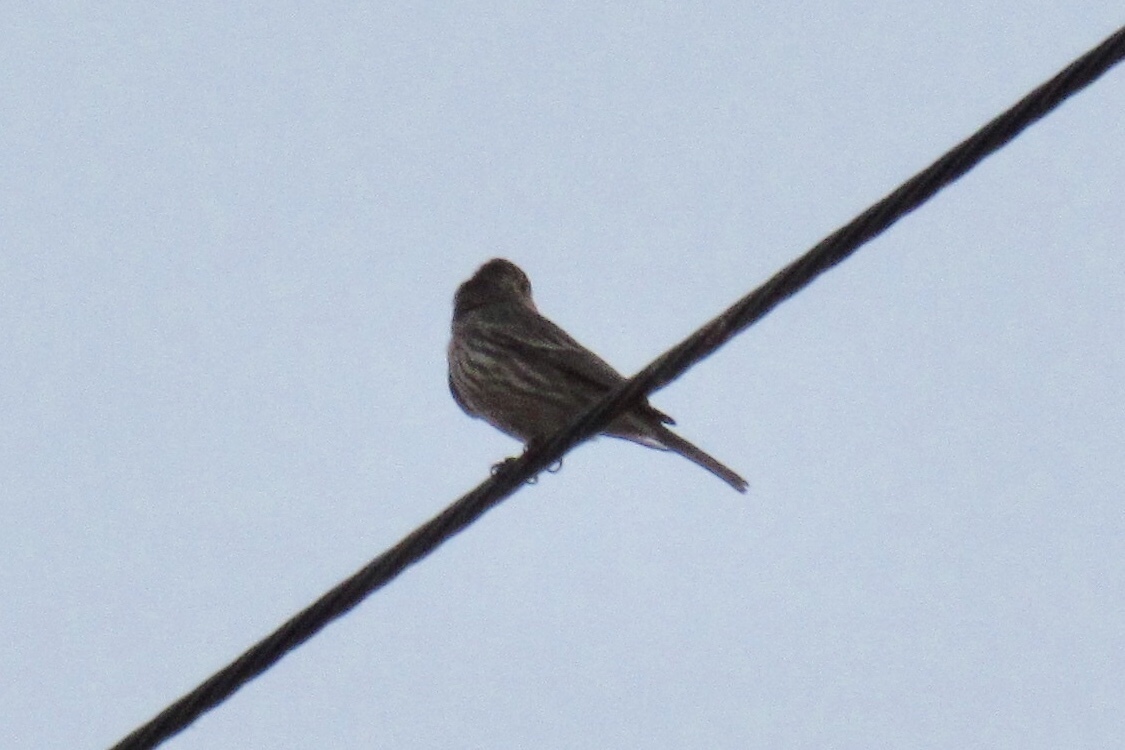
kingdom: Animalia
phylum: Chordata
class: Aves
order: Passeriformes
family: Fringillidae
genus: Haemorhous
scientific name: Haemorhous mexicanus
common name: House finch
